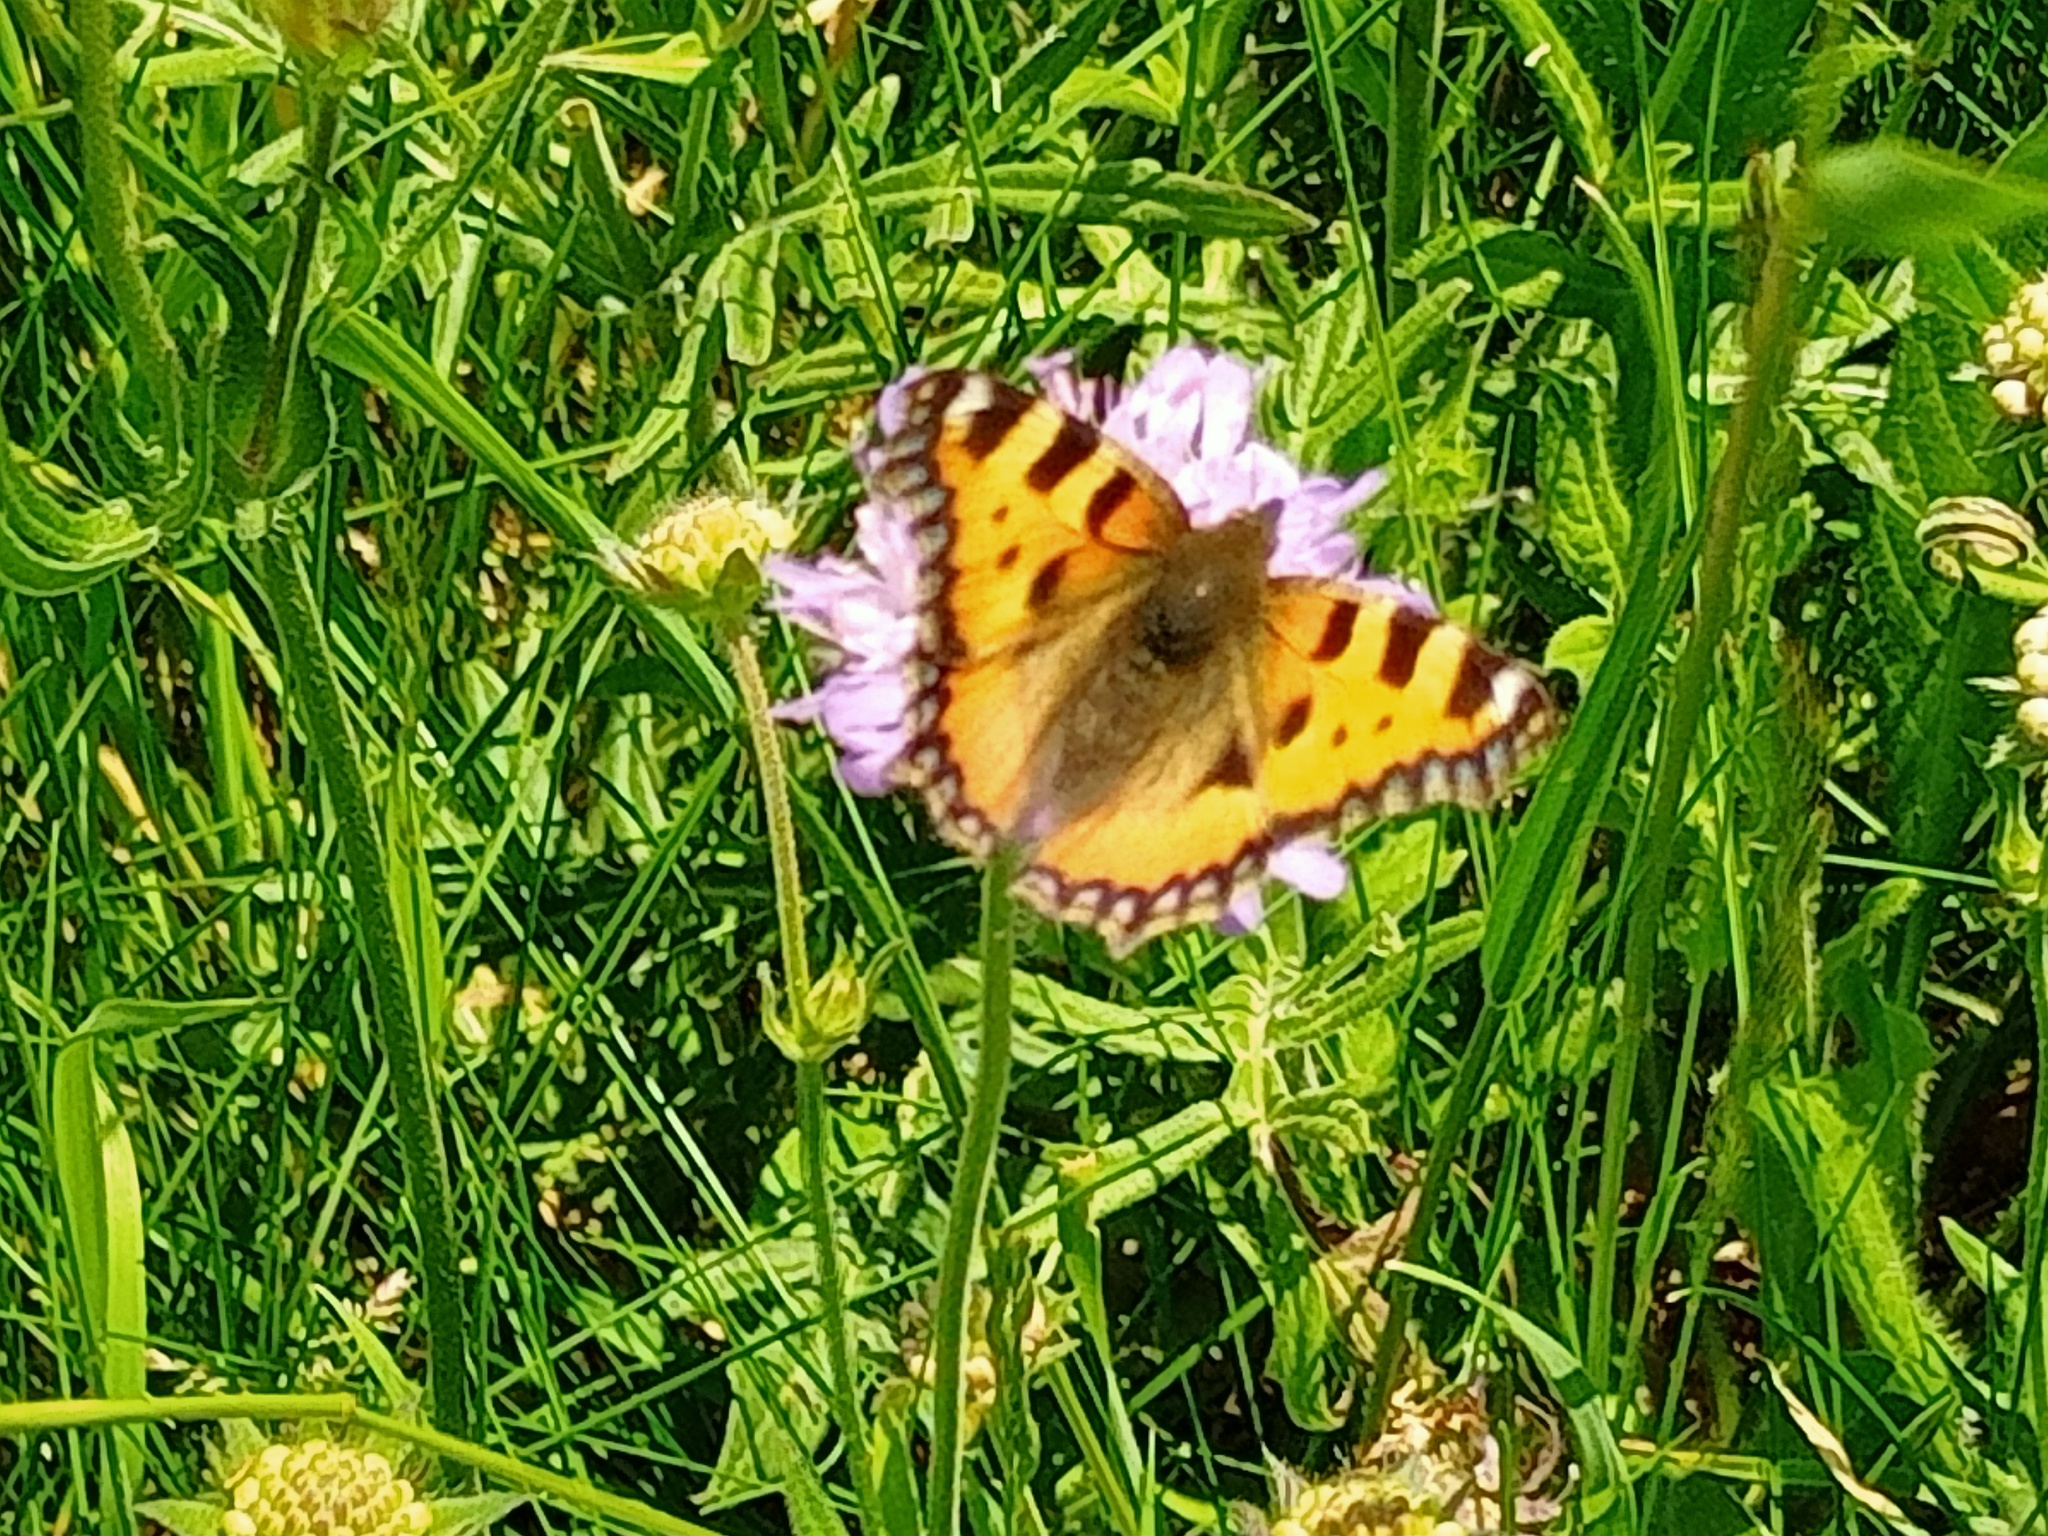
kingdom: Animalia
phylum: Arthropoda
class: Insecta
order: Lepidoptera
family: Nymphalidae
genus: Aglais
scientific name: Aglais urticae
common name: Small tortoiseshell
